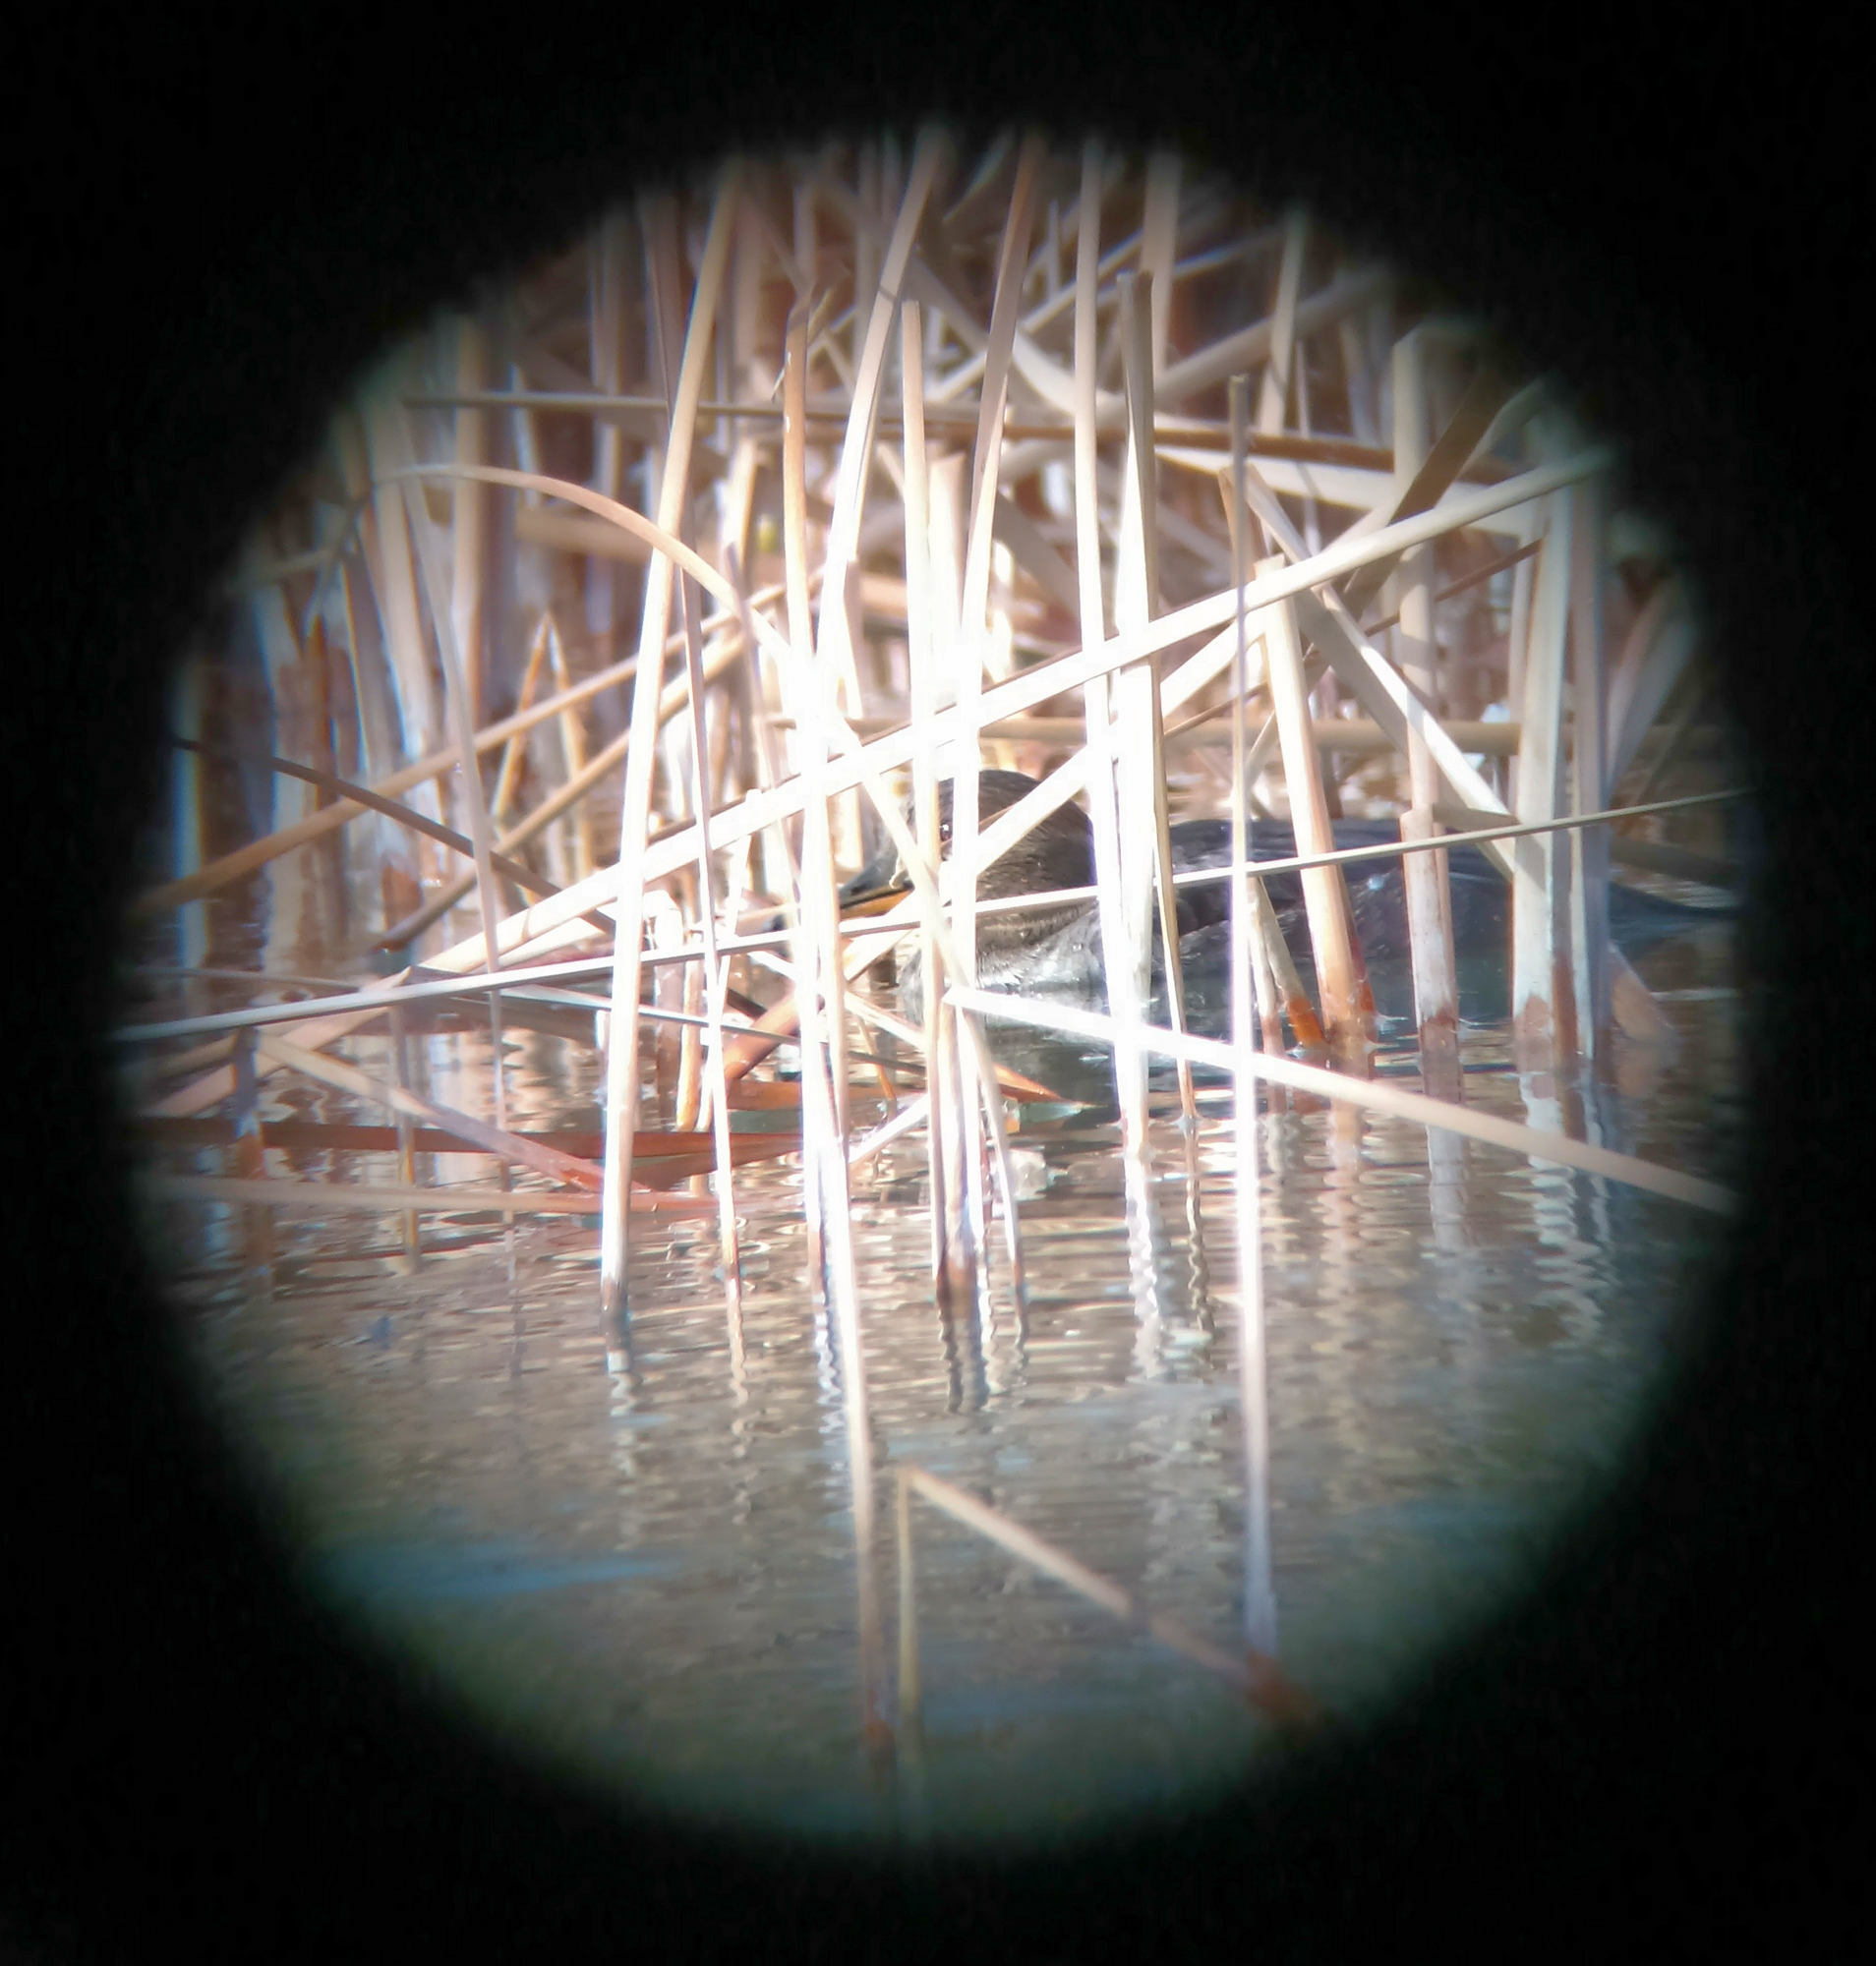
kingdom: Animalia
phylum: Chordata
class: Aves
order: Anseriformes
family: Anatidae
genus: Lophodytes
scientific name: Lophodytes cucullatus
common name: Hooded merganser
